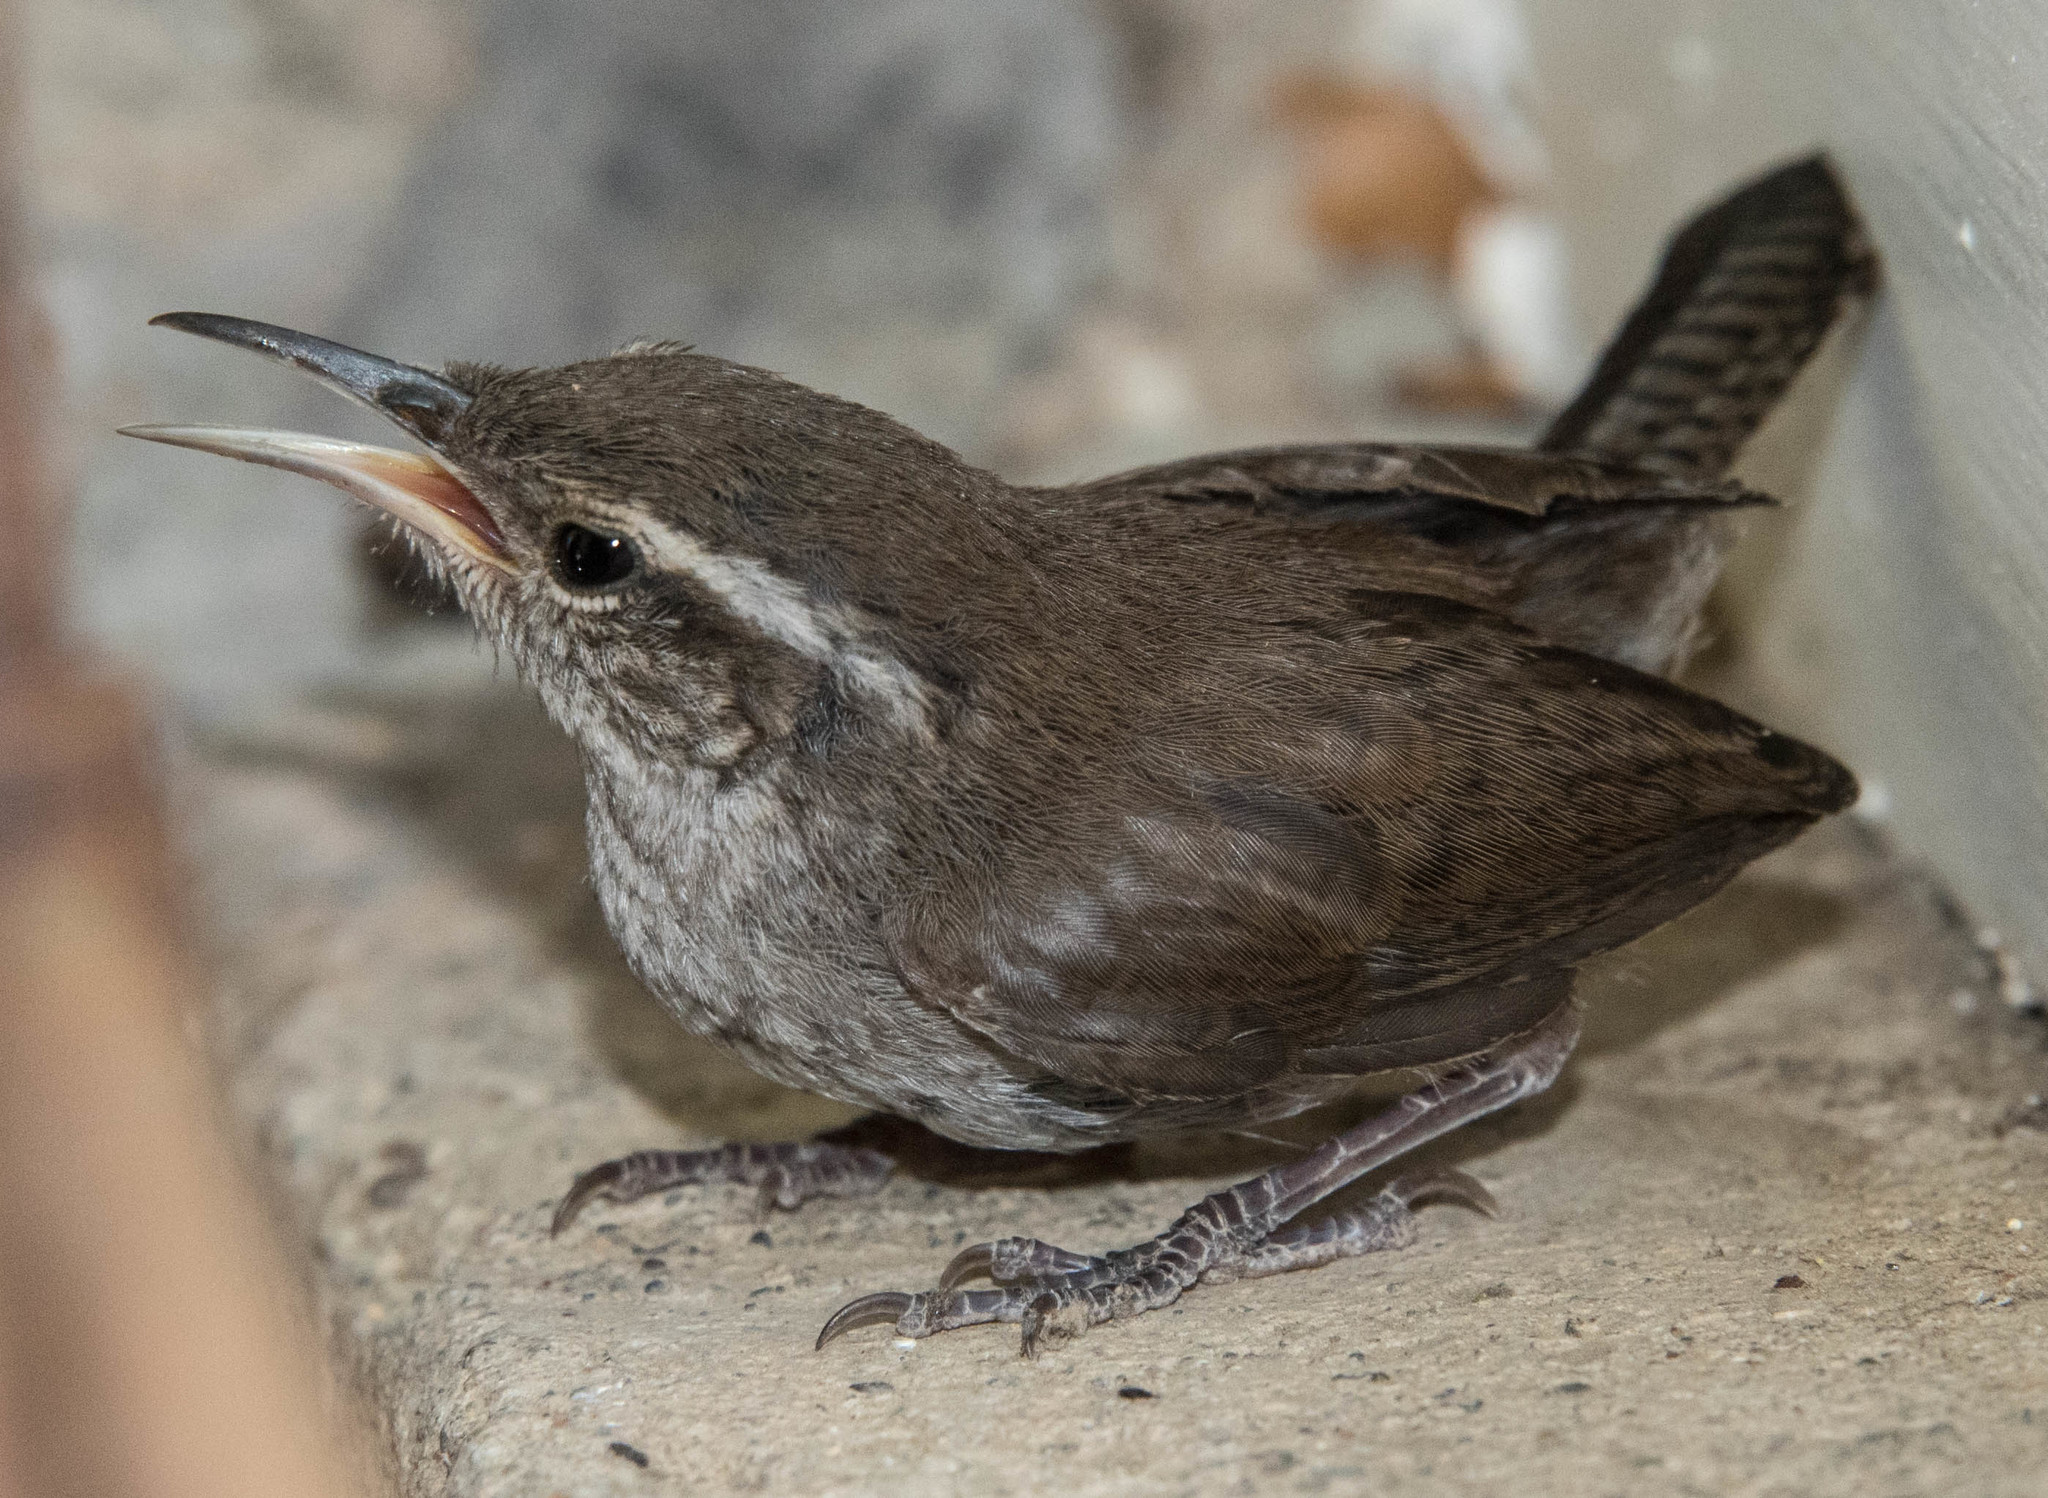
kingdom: Animalia
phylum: Chordata
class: Aves
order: Passeriformes
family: Troglodytidae
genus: Thryomanes
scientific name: Thryomanes bewickii
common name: Bewick's wren
